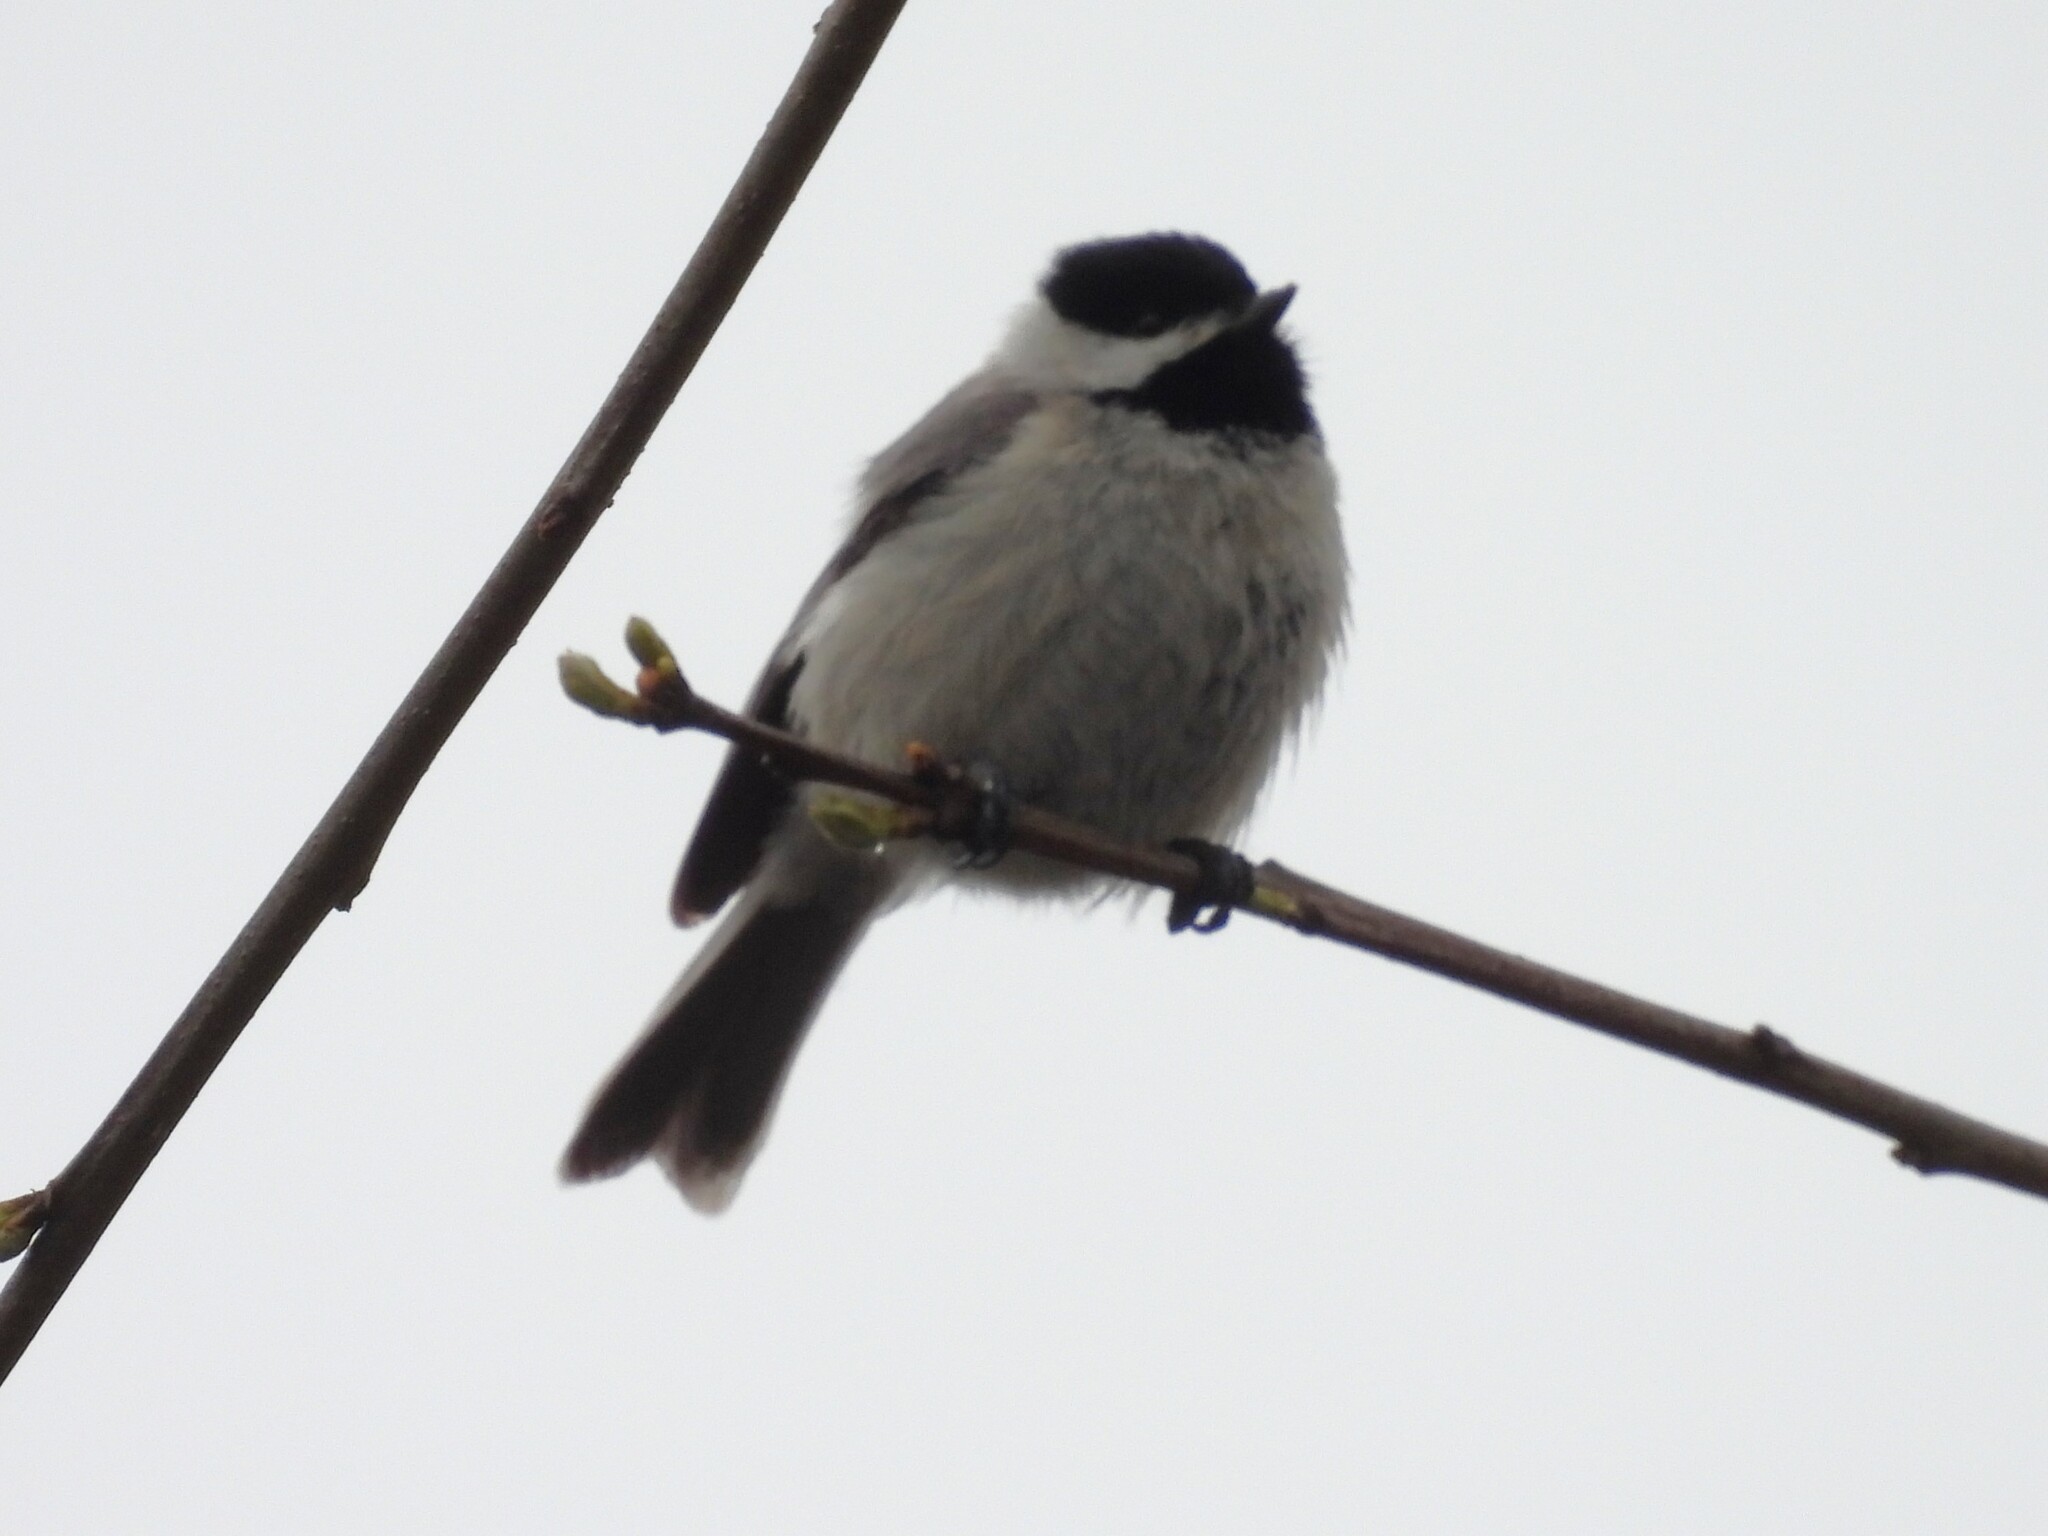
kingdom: Animalia
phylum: Chordata
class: Aves
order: Passeriformes
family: Paridae
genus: Poecile
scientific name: Poecile carolinensis
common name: Carolina chickadee
